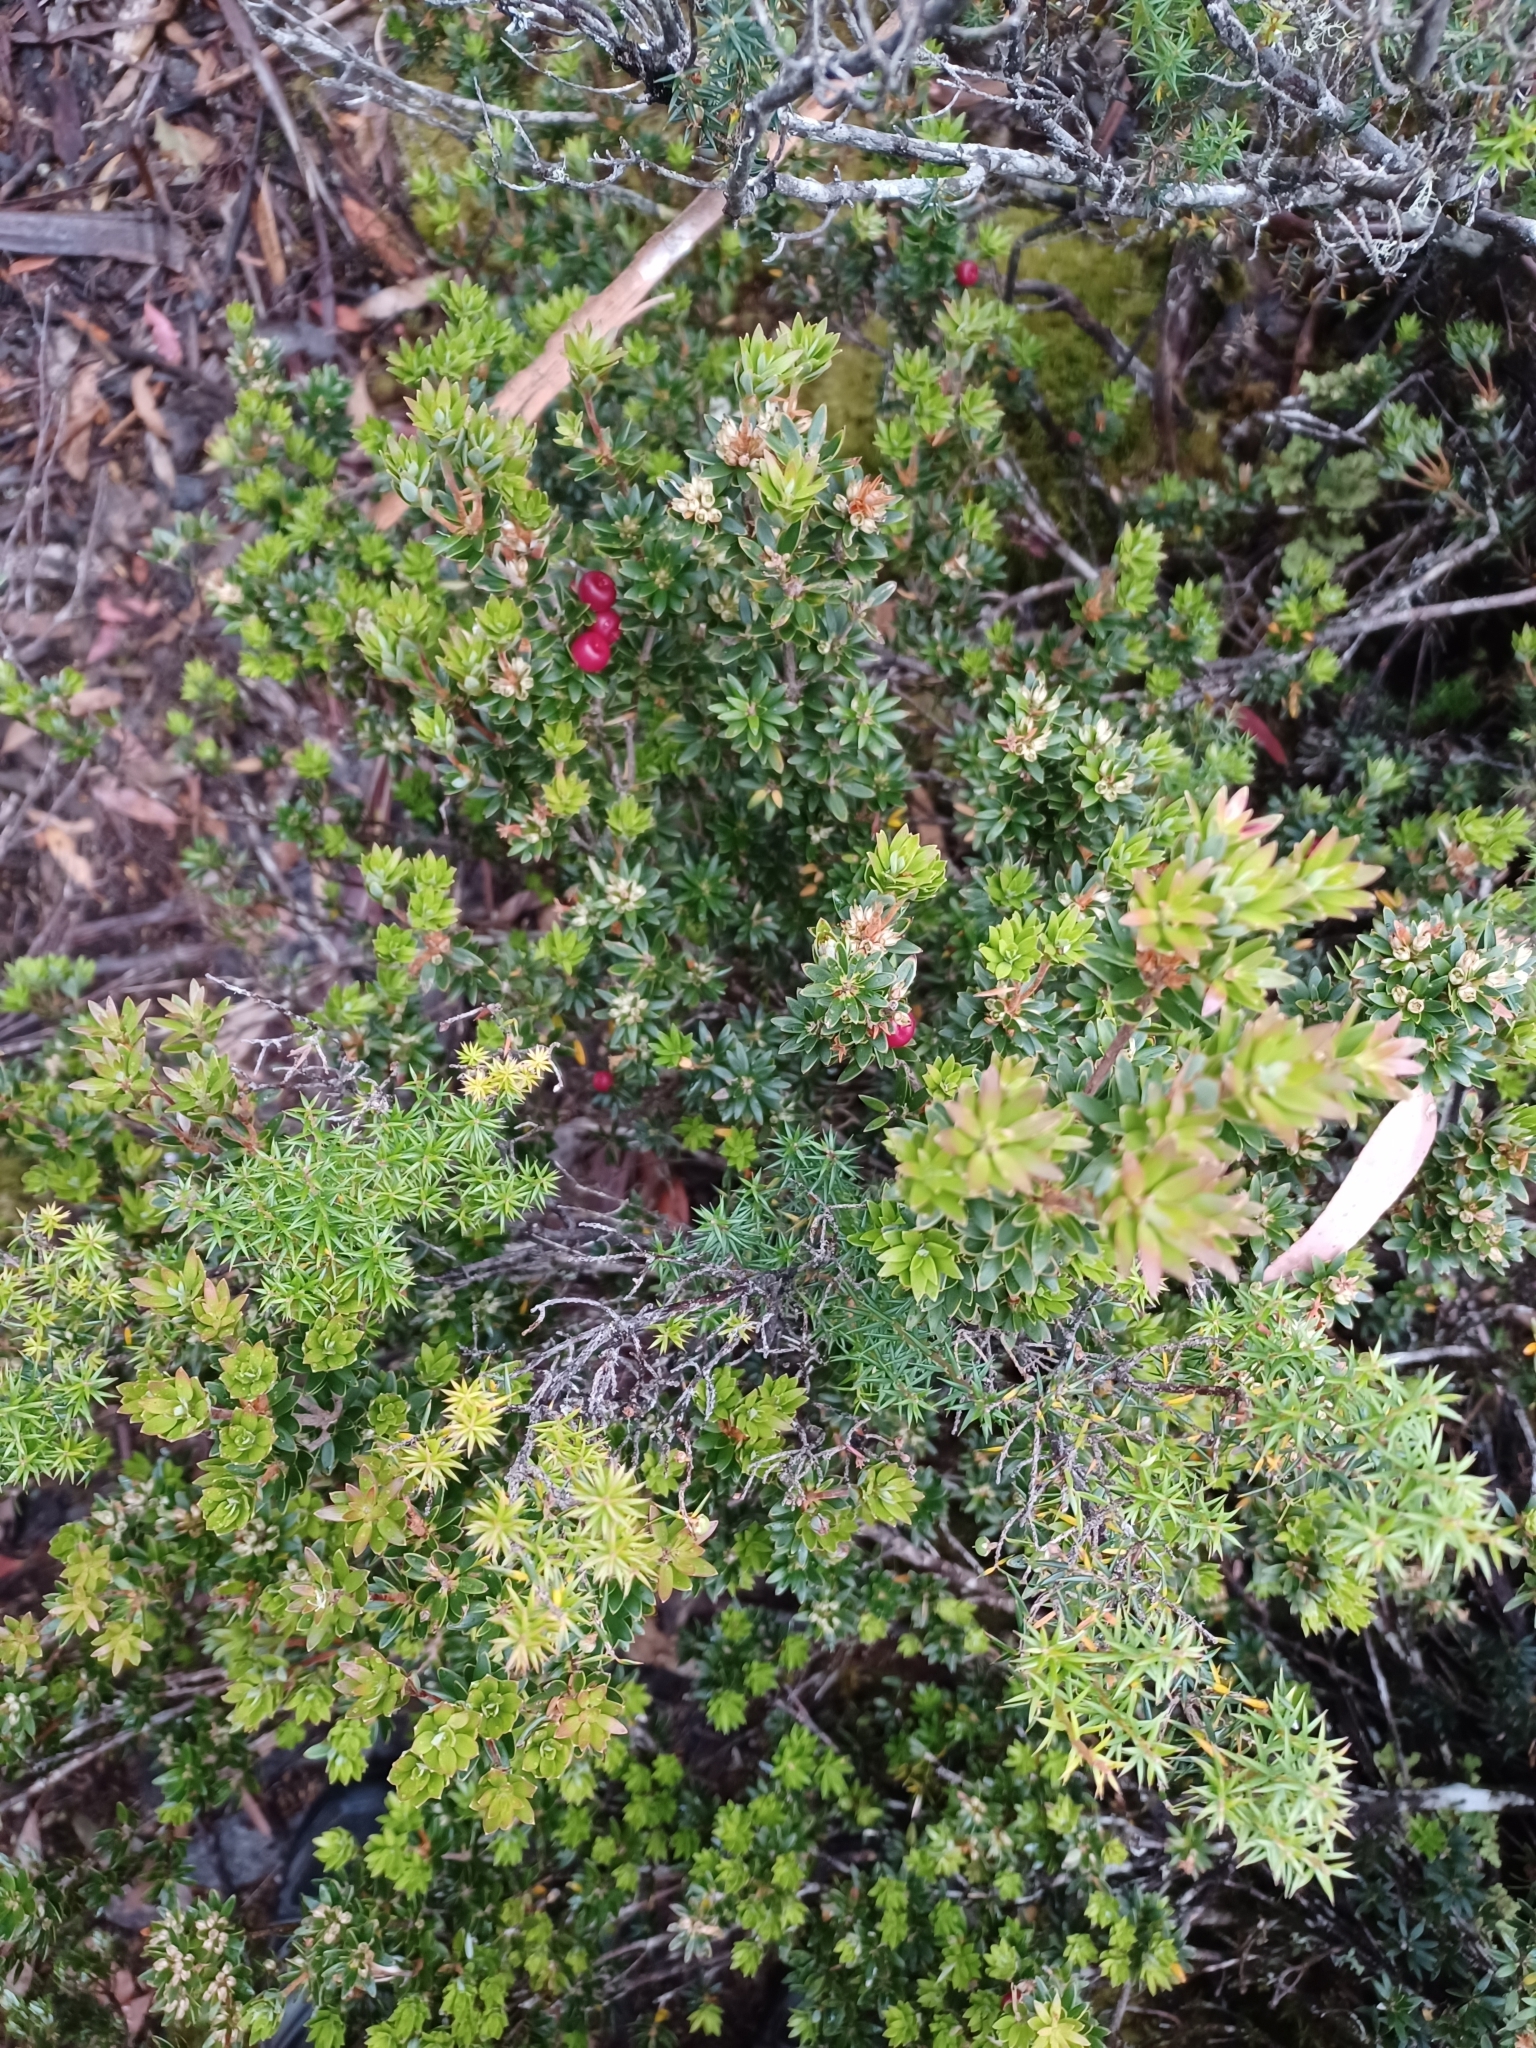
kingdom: Plantae
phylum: Tracheophyta
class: Magnoliopsida
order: Ericales
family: Ericaceae
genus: Cyathodes
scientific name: Cyathodes straminea
